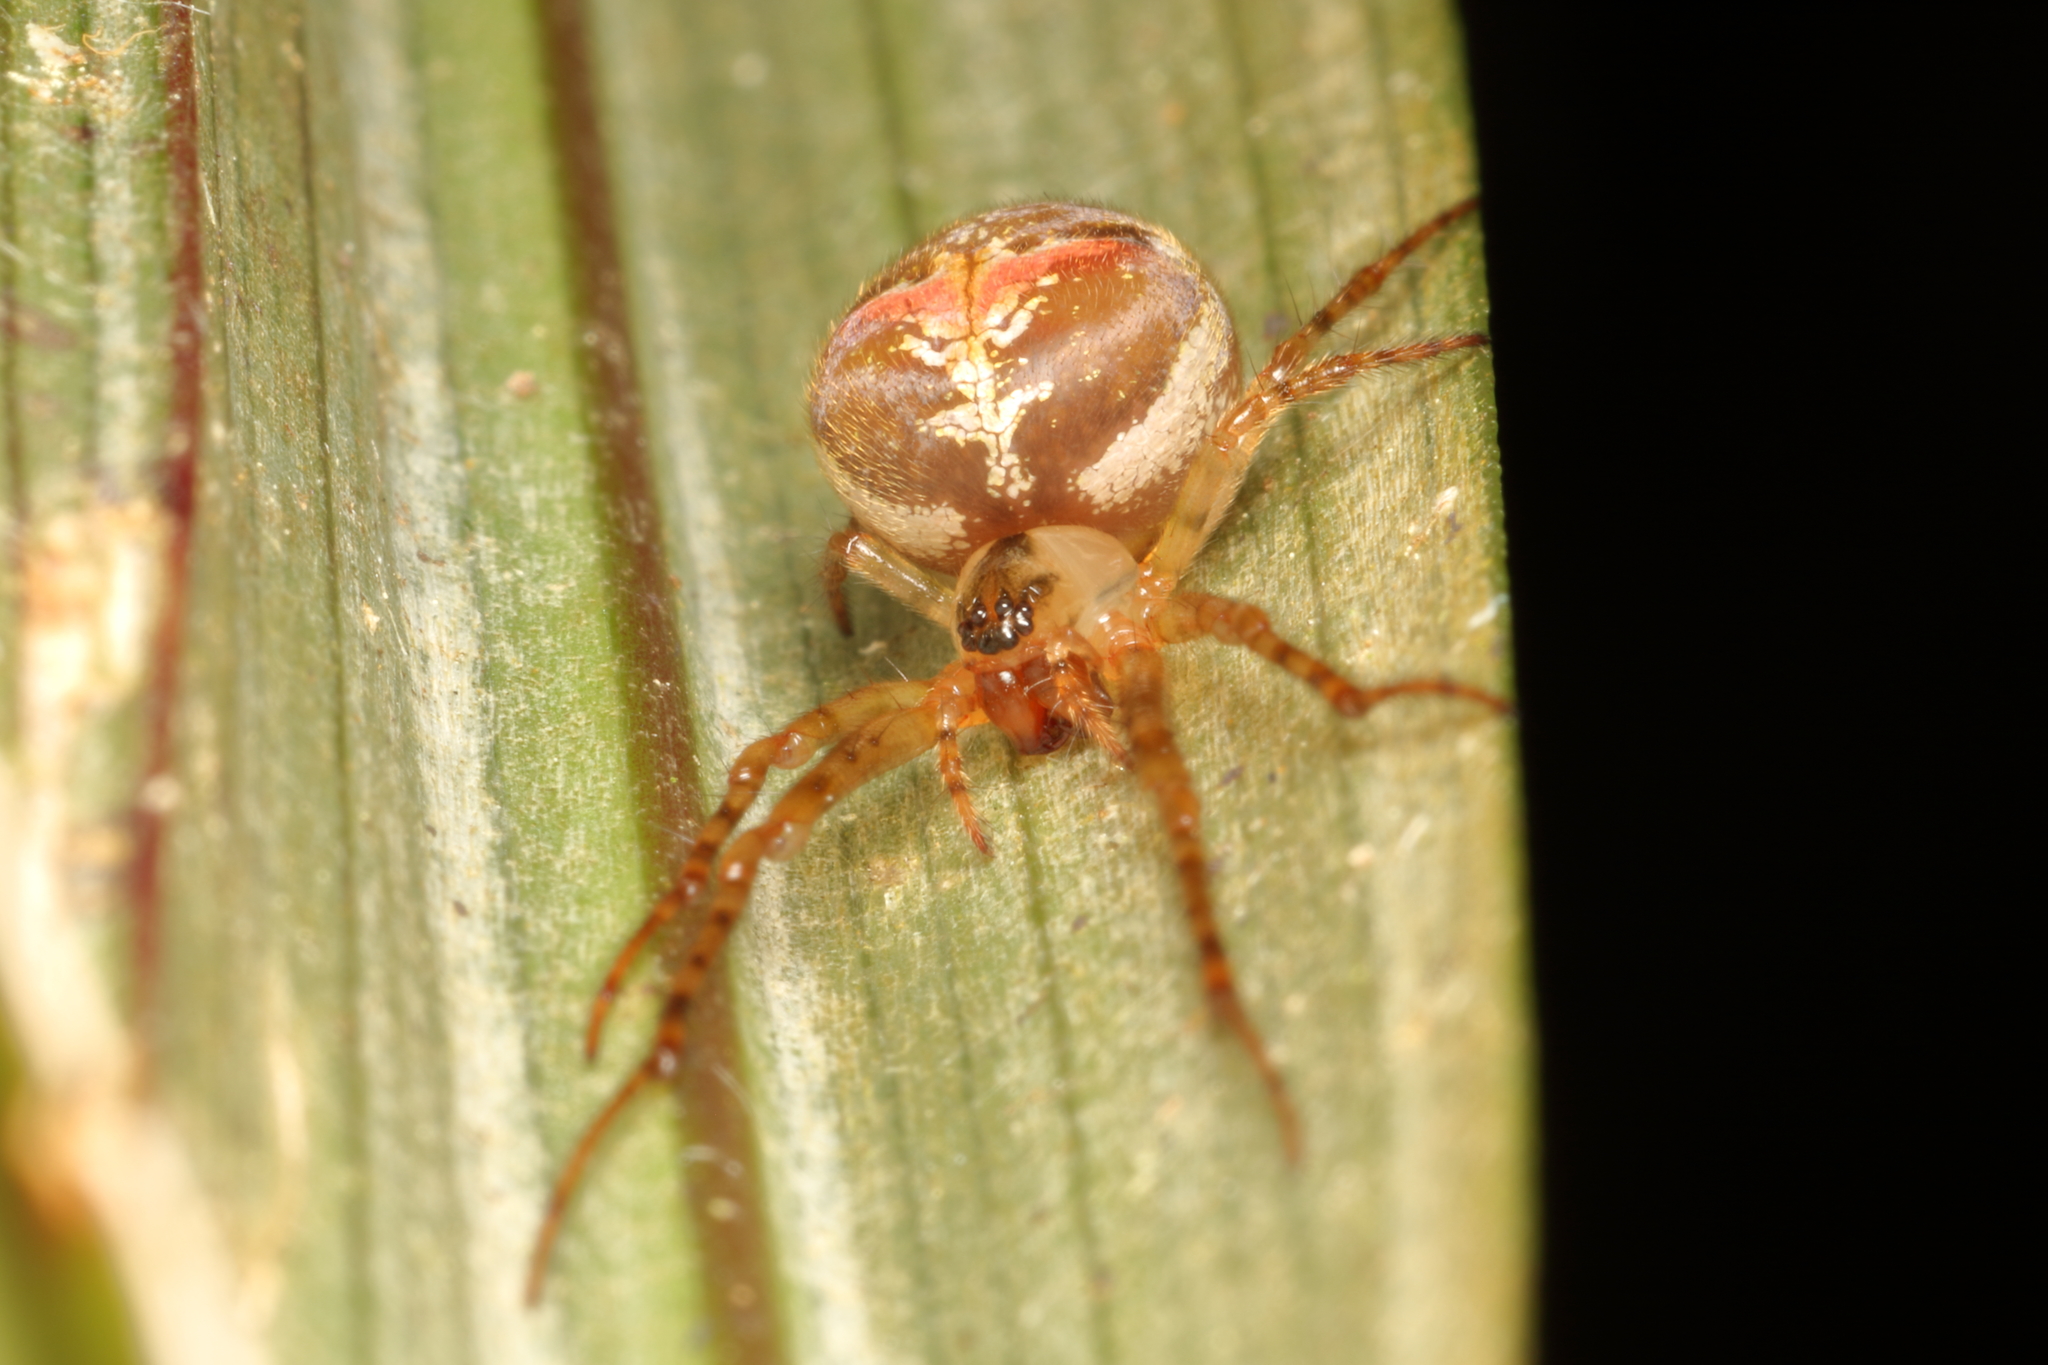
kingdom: Animalia
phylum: Arthropoda
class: Arachnida
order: Araneae
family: Tetragnathidae
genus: Taraire
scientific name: Taraire rufolineata
